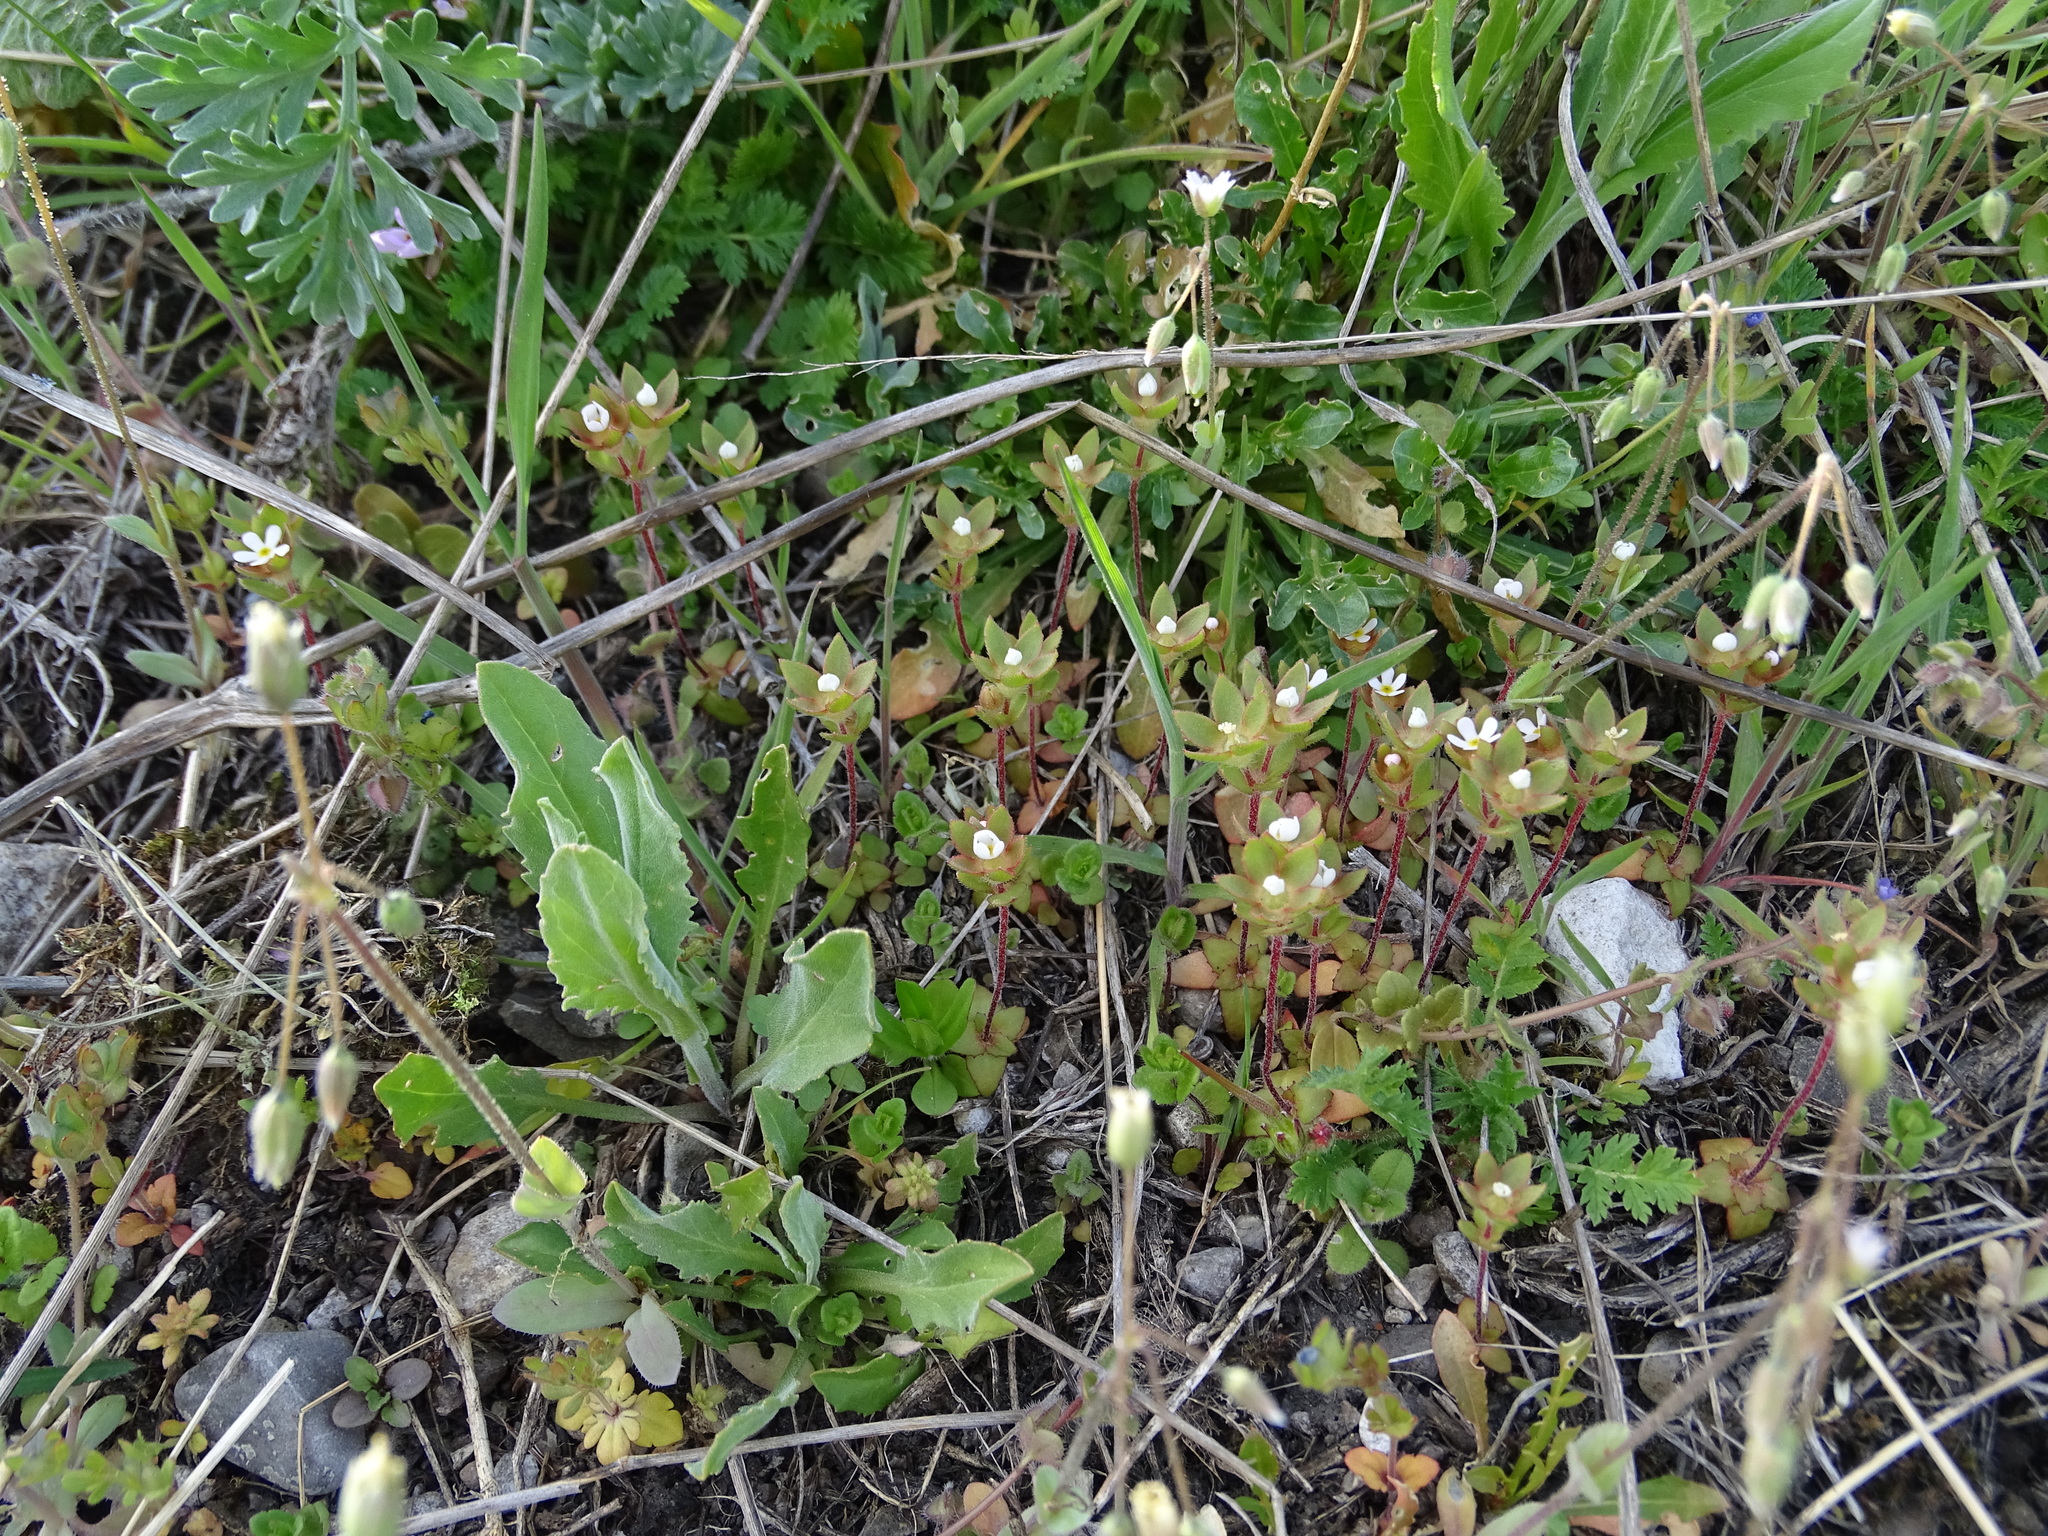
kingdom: Plantae
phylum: Tracheophyta
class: Magnoliopsida
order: Ericales
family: Primulaceae
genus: Androsace
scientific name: Androsace maxima
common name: Annual androsace
